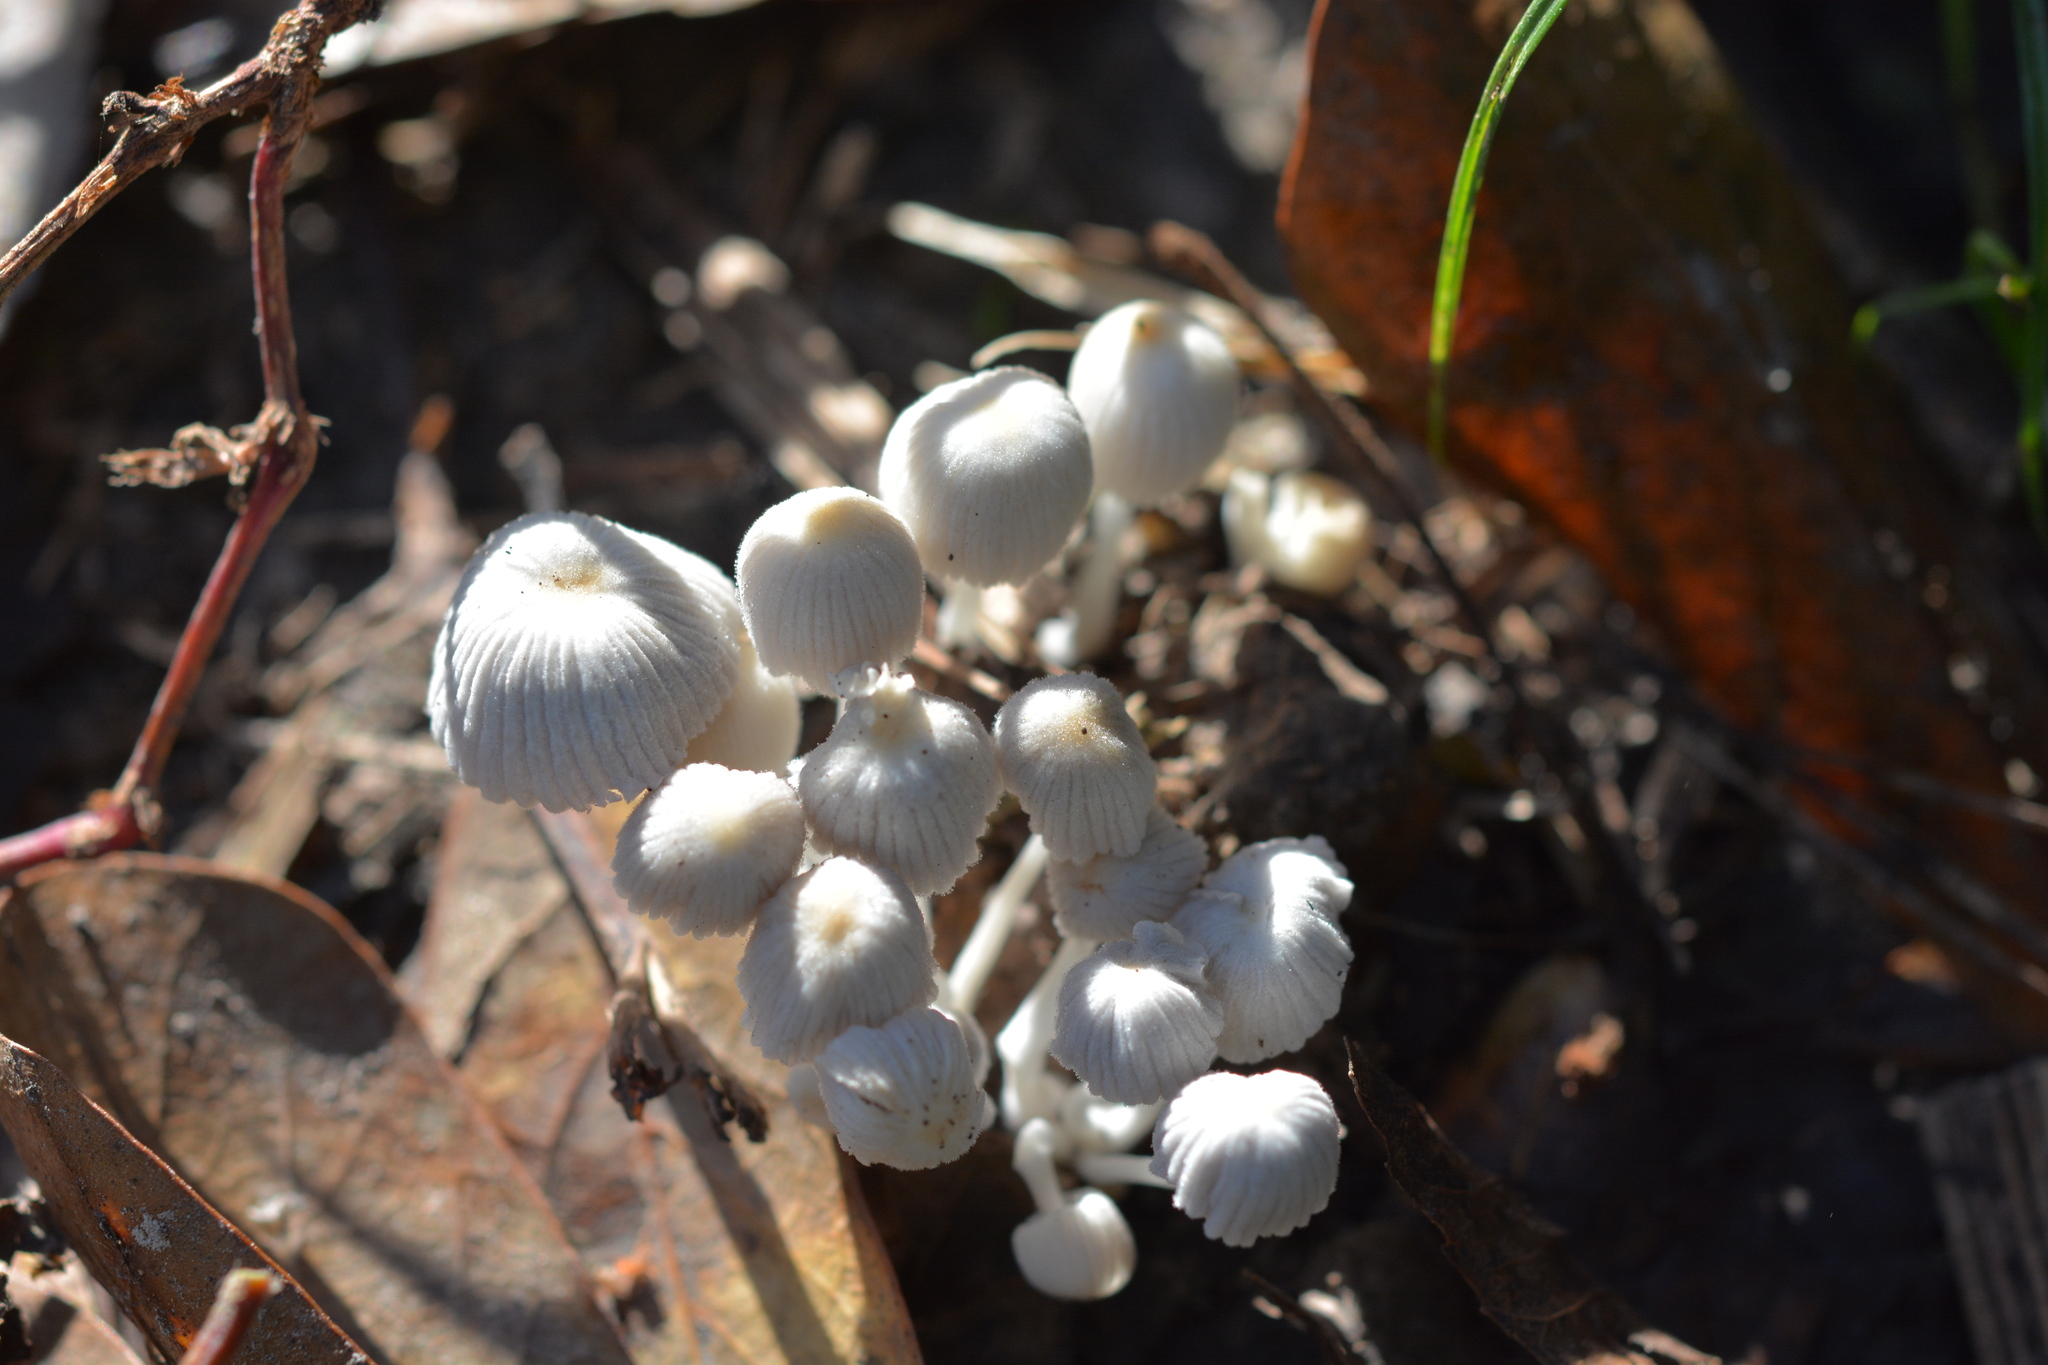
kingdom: Fungi
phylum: Basidiomycota
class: Agaricomycetes
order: Agaricales
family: Psathyrellaceae
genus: Coprinellus
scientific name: Coprinellus disseminatus
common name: Fairies' bonnets
